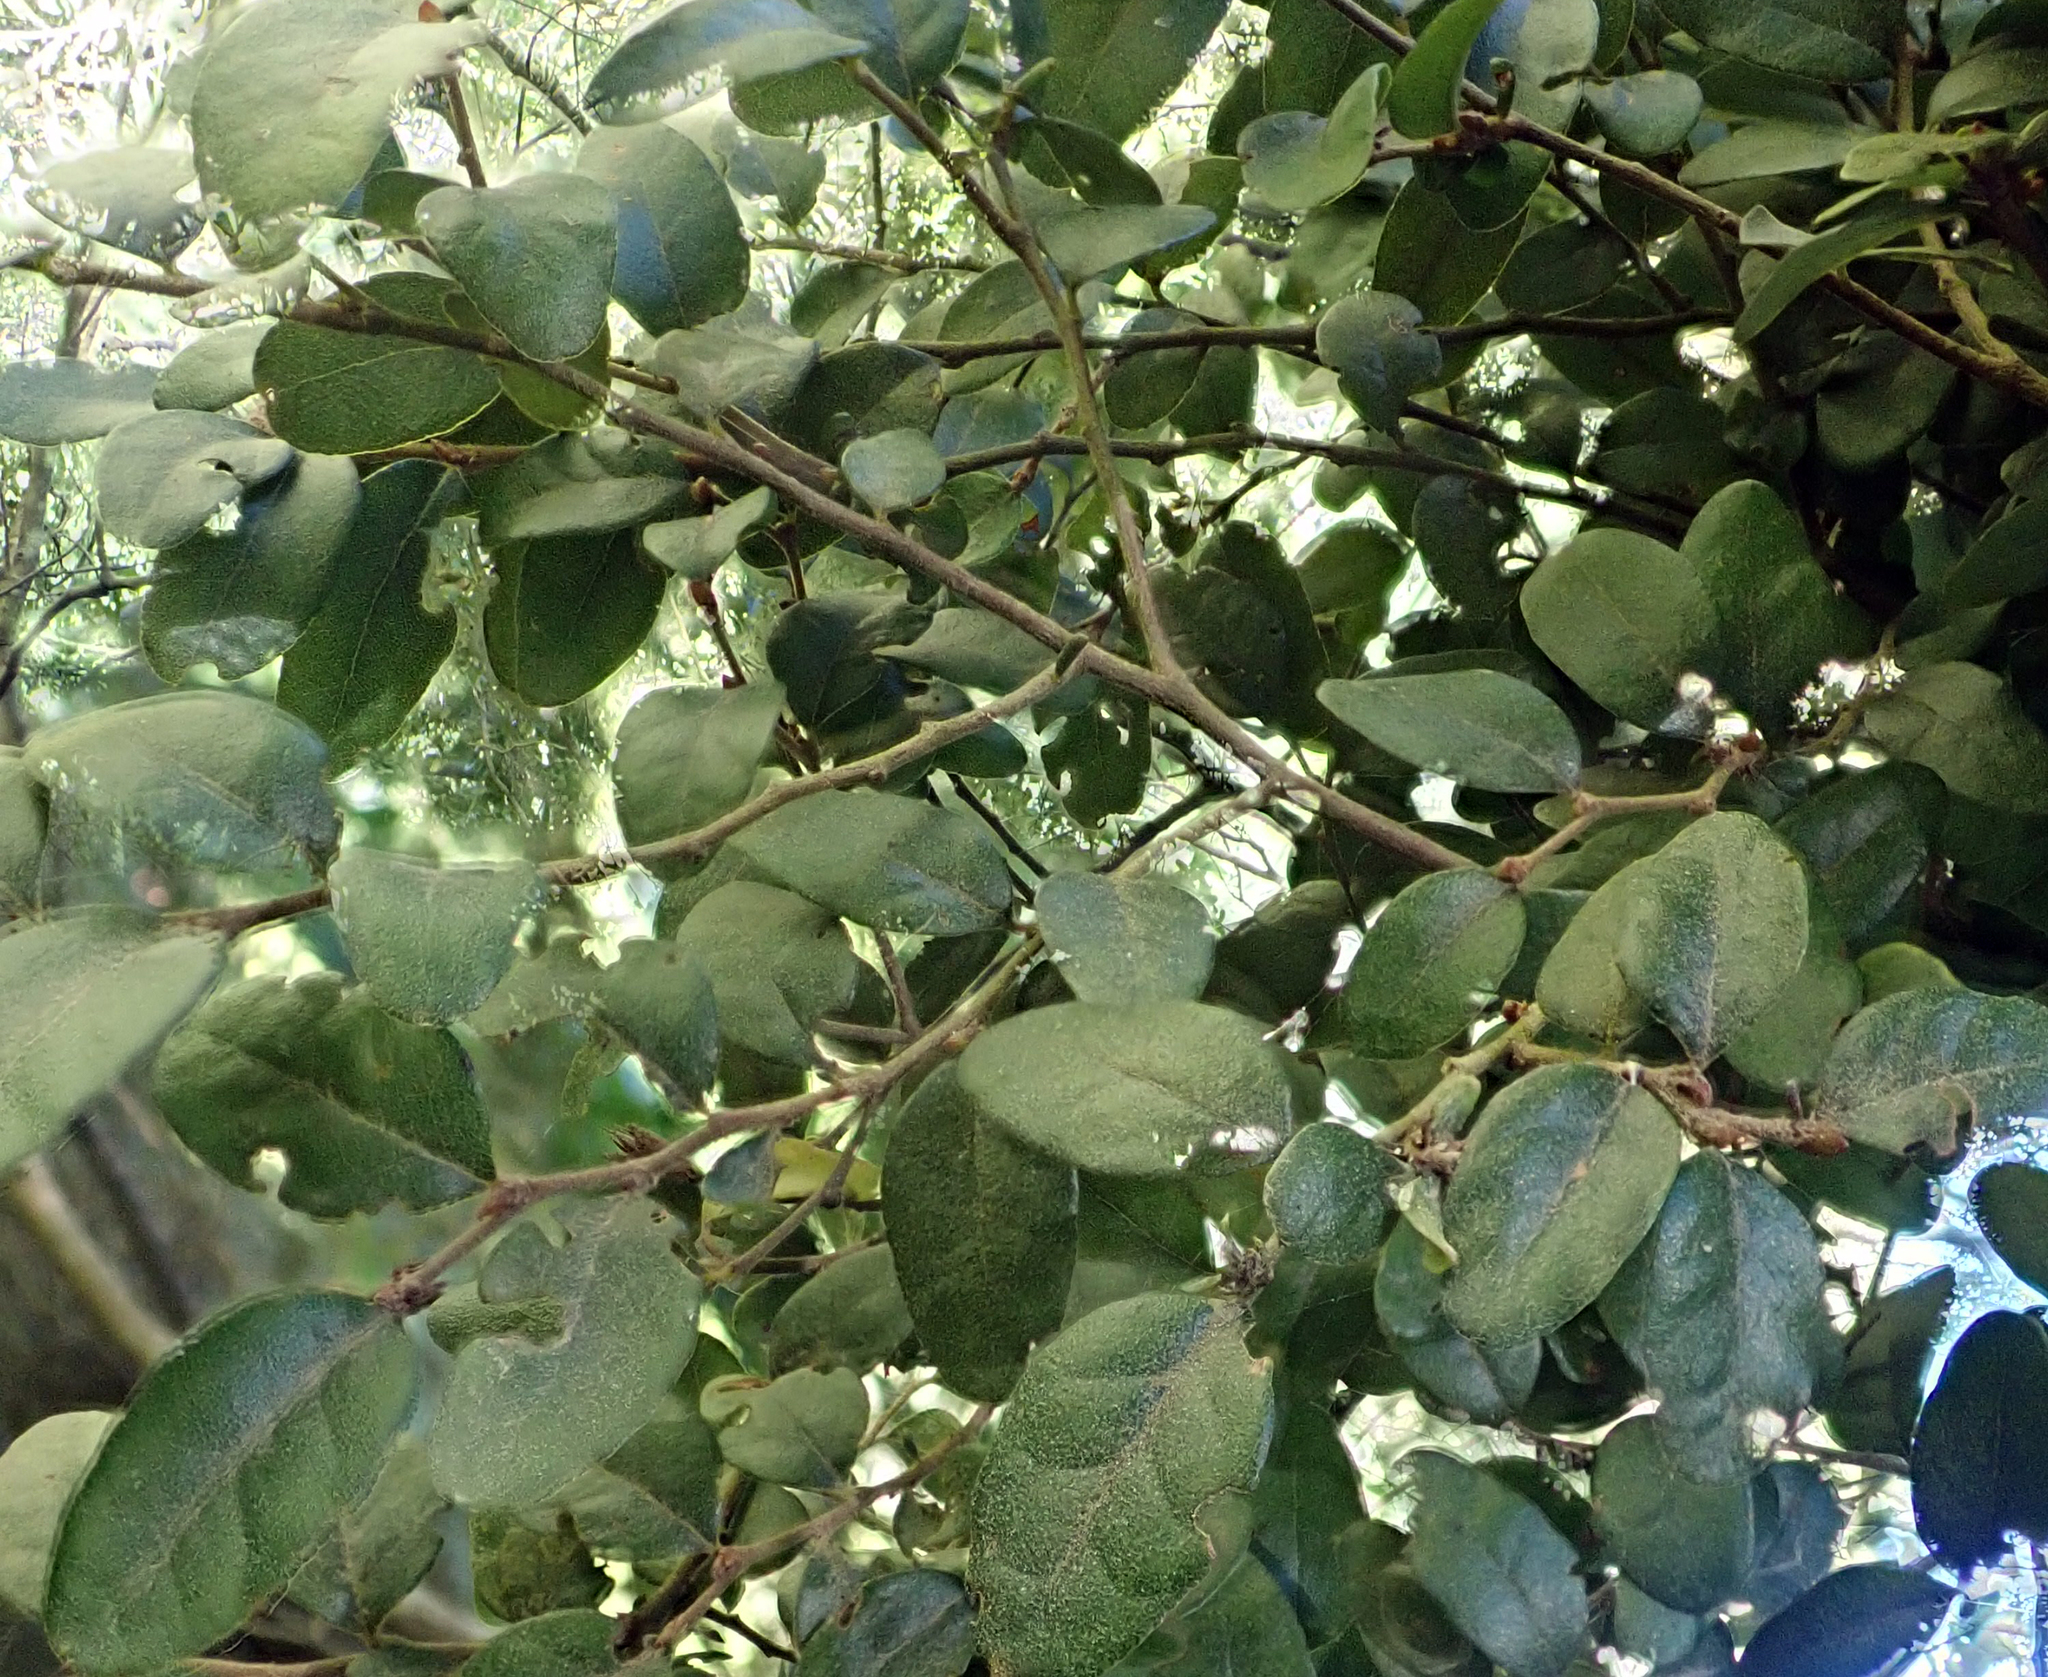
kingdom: Plantae
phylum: Tracheophyta
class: Magnoliopsida
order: Fagales
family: Nothofagaceae
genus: Nothofagus
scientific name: Nothofagus solandri
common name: Black beech
